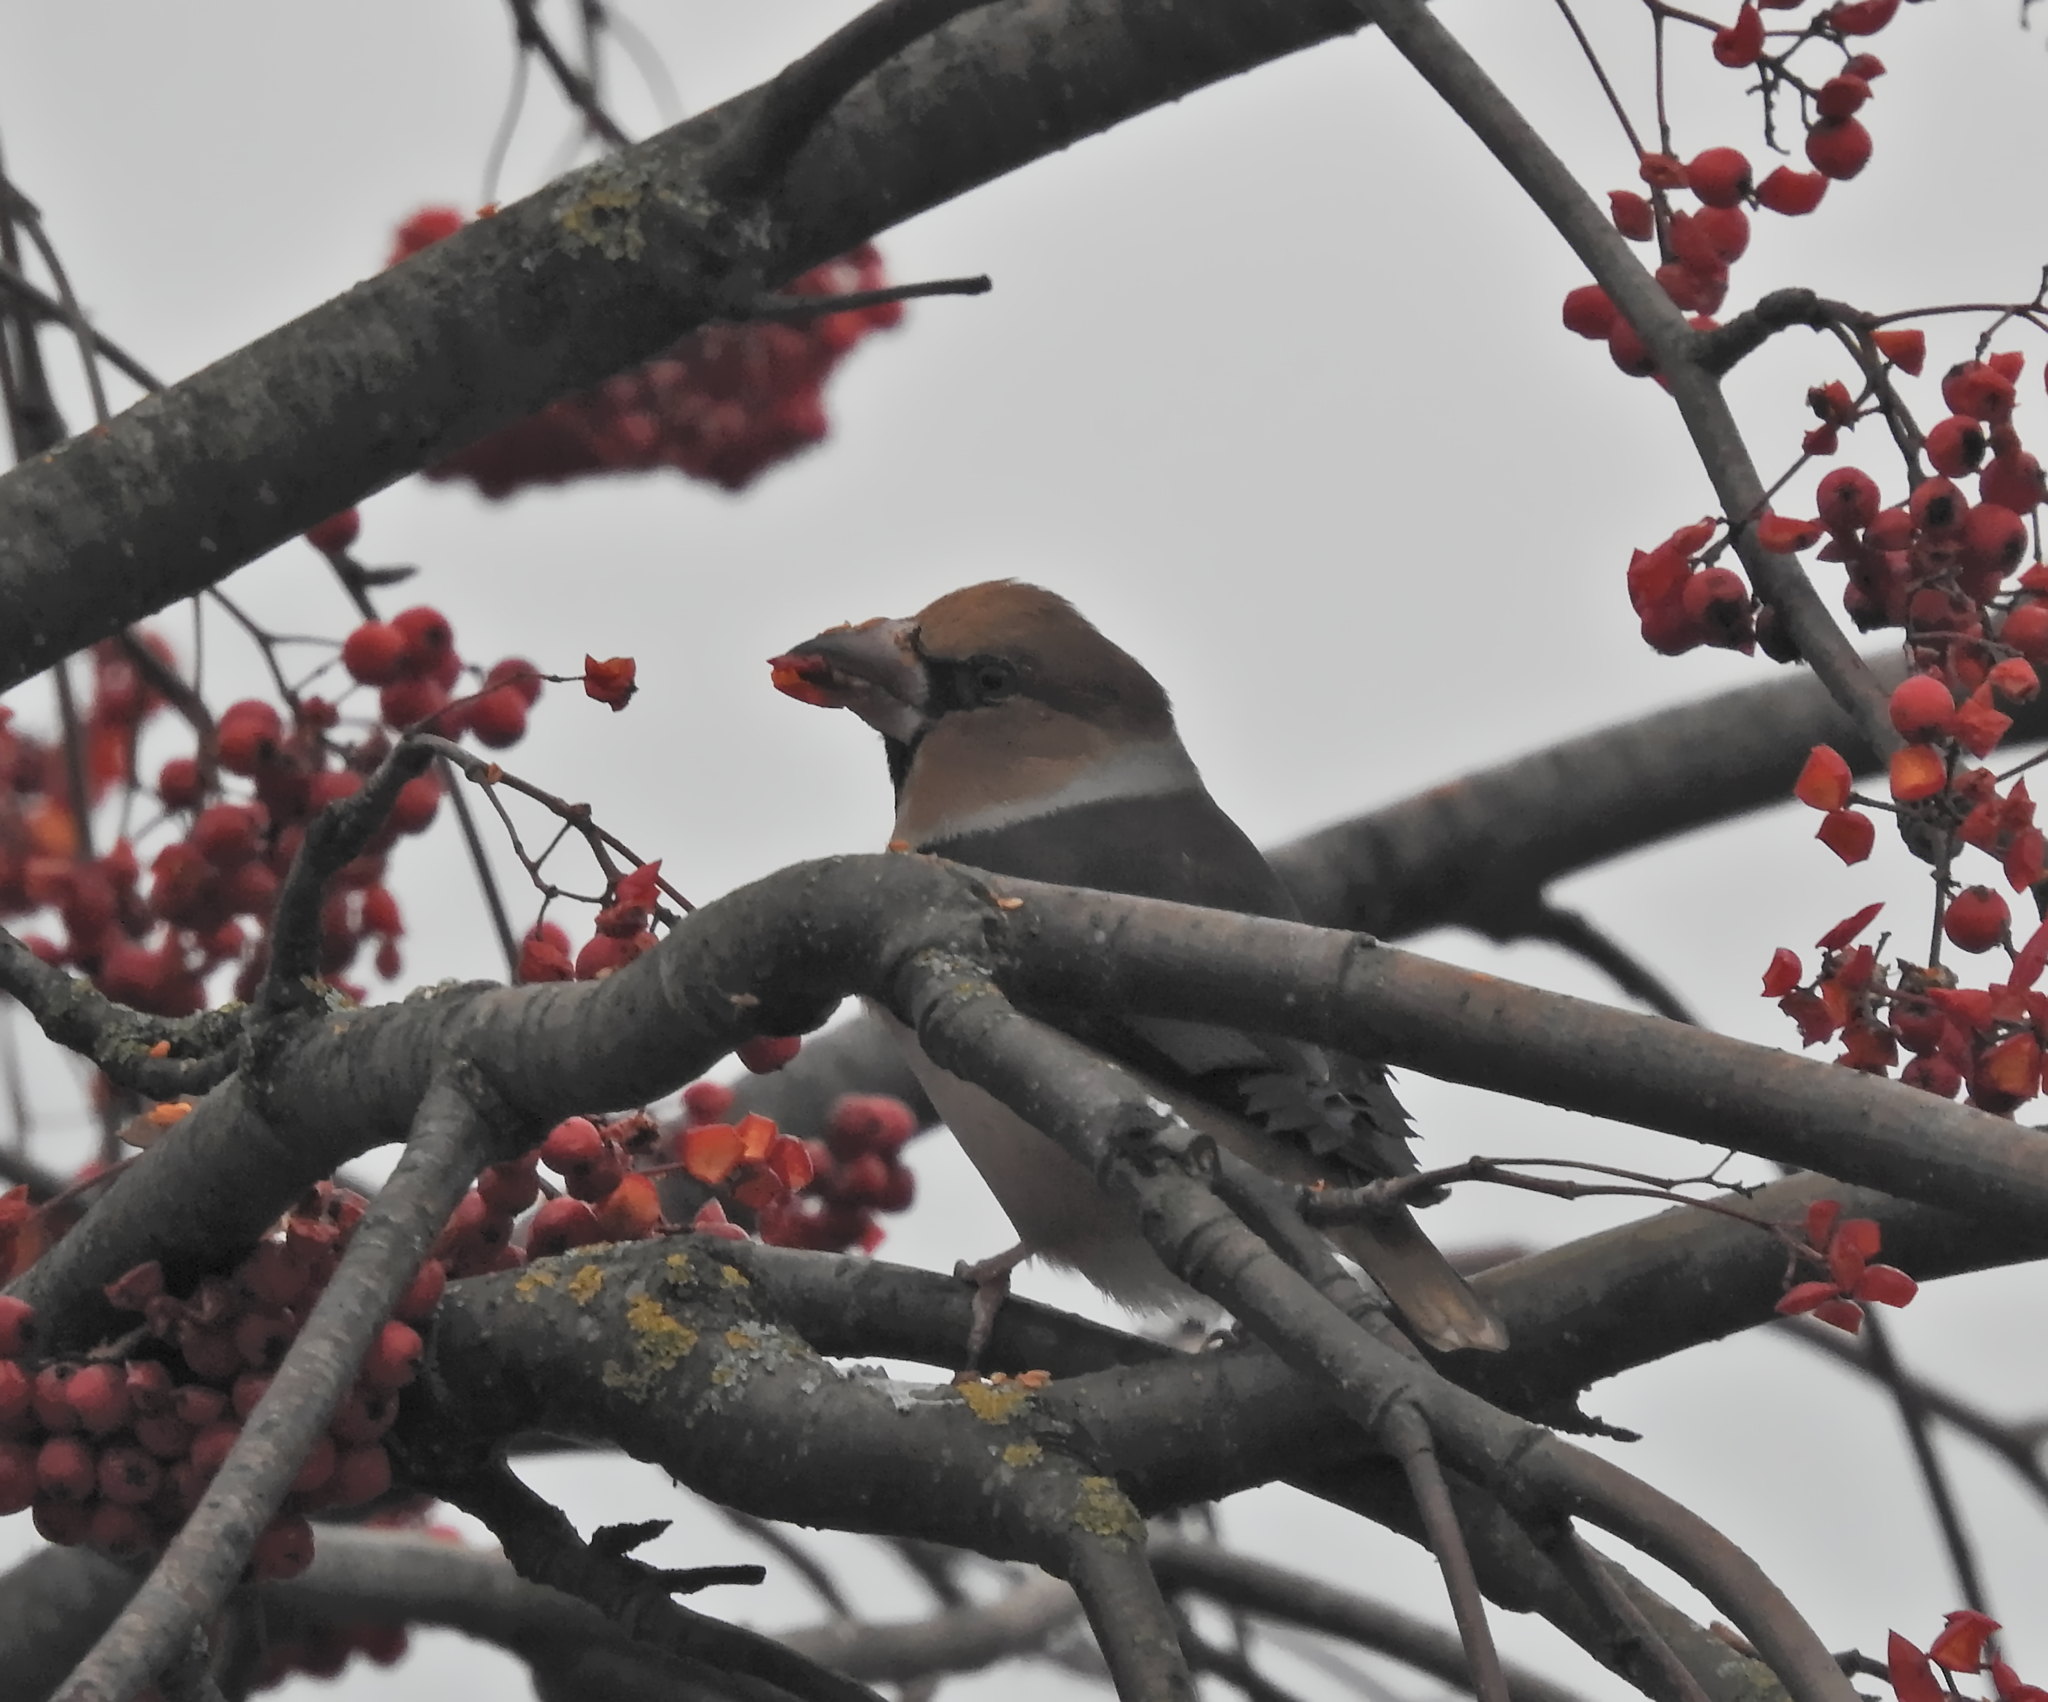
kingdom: Animalia
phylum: Chordata
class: Aves
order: Passeriformes
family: Fringillidae
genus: Coccothraustes
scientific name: Coccothraustes coccothraustes
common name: Hawfinch
